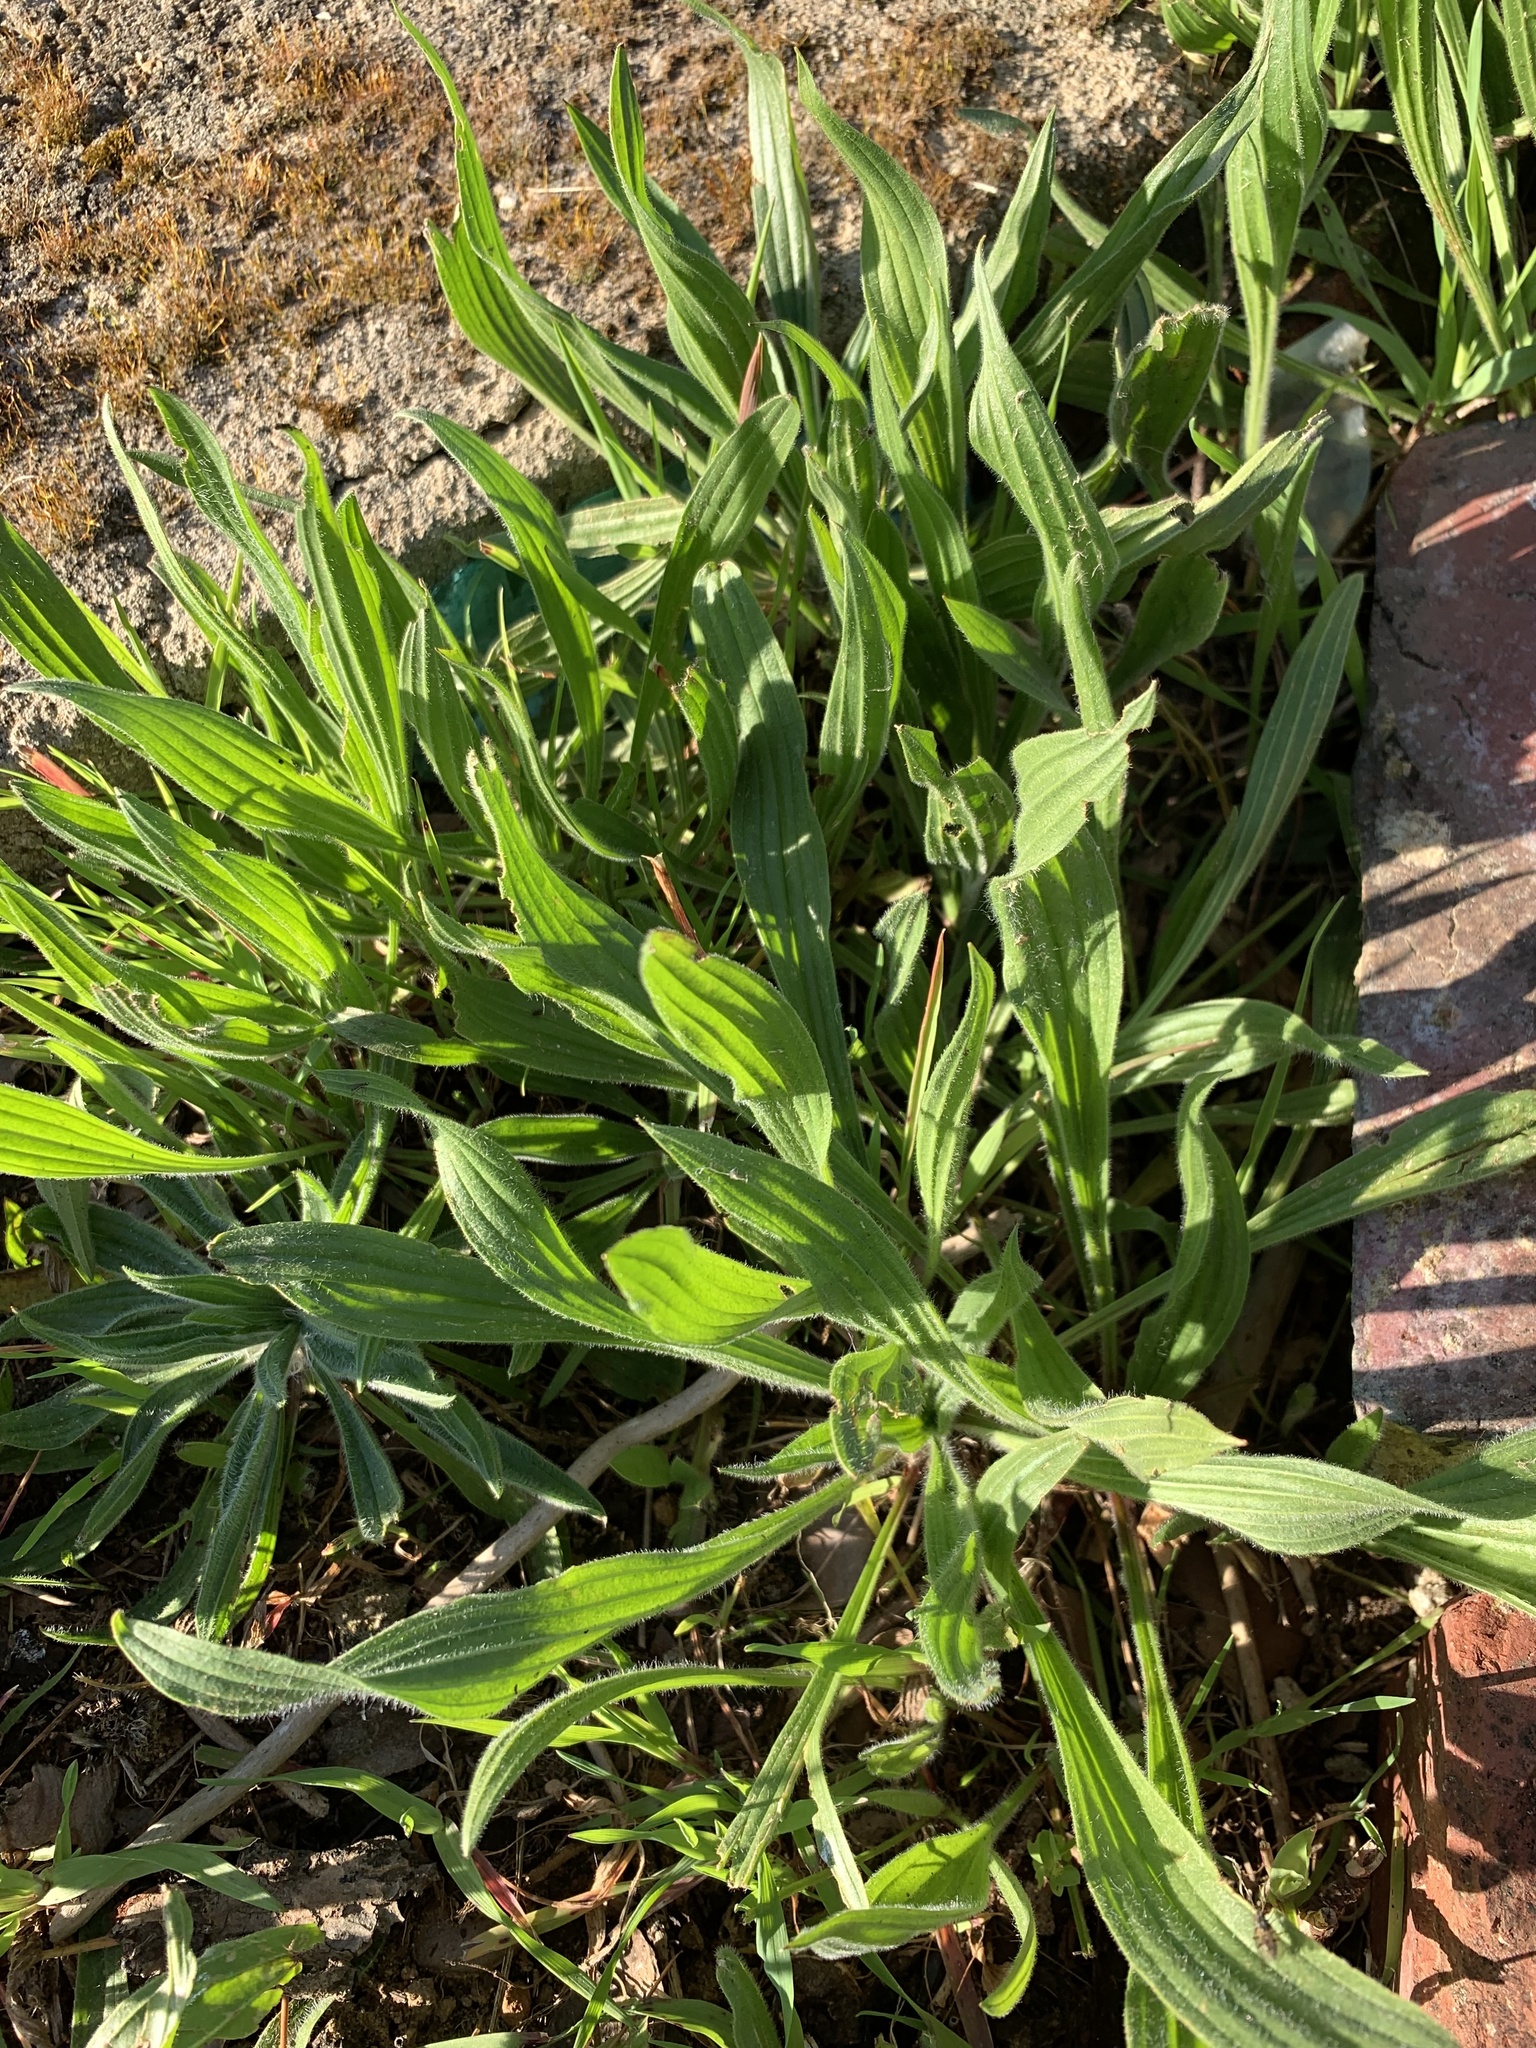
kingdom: Plantae
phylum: Tracheophyta
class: Magnoliopsida
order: Lamiales
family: Plantaginaceae
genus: Plantago
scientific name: Plantago lanceolata
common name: Ribwort plantain
